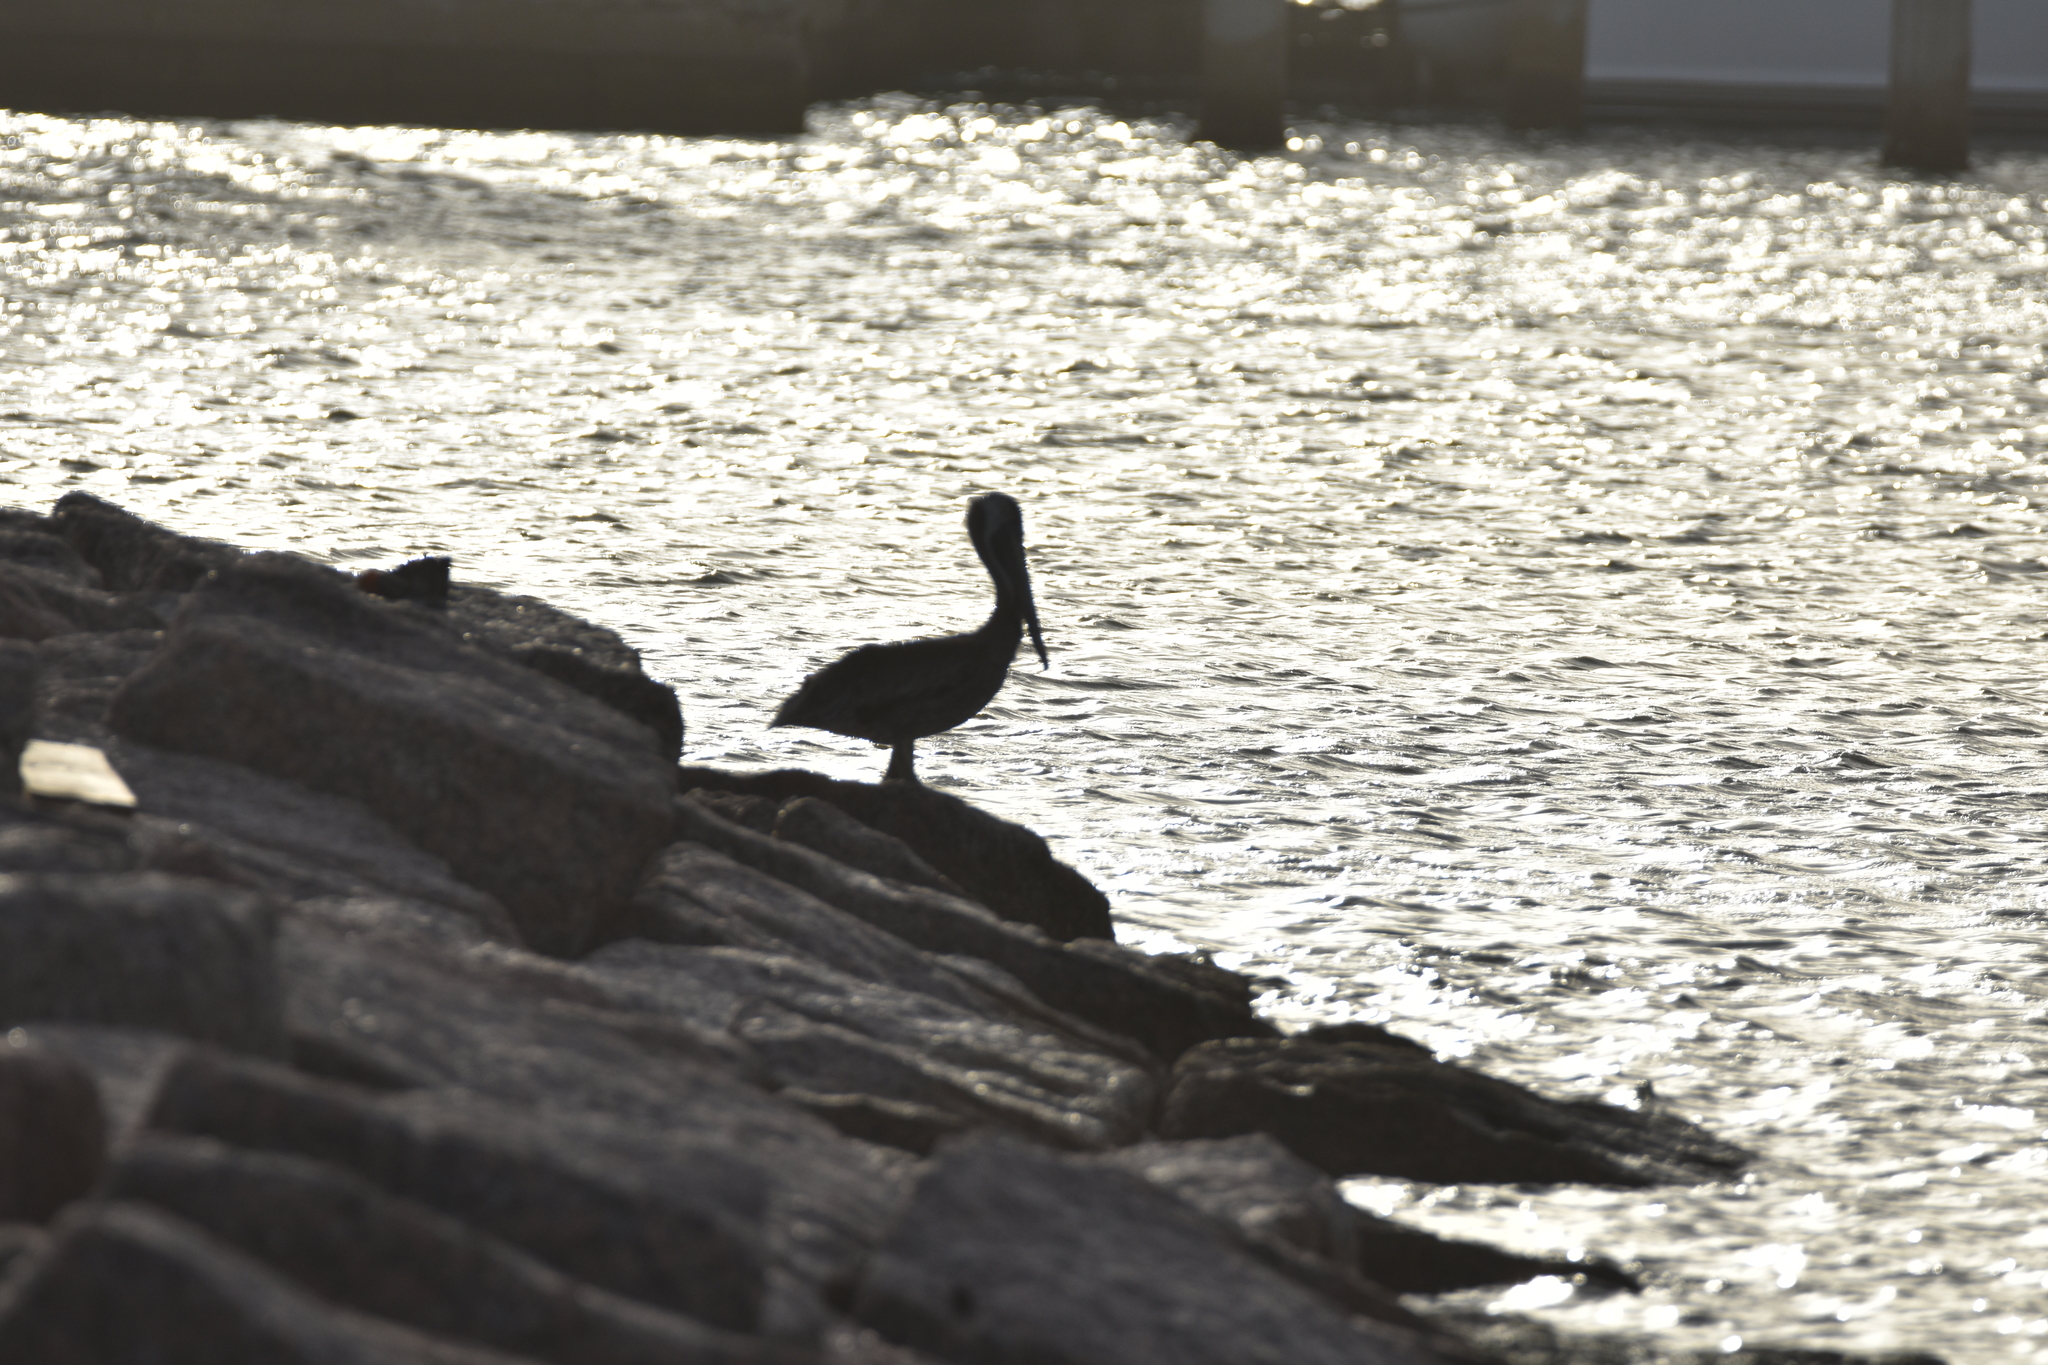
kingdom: Animalia
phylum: Chordata
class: Aves
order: Pelecaniformes
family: Pelecanidae
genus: Pelecanus
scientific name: Pelecanus occidentalis
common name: Brown pelican
